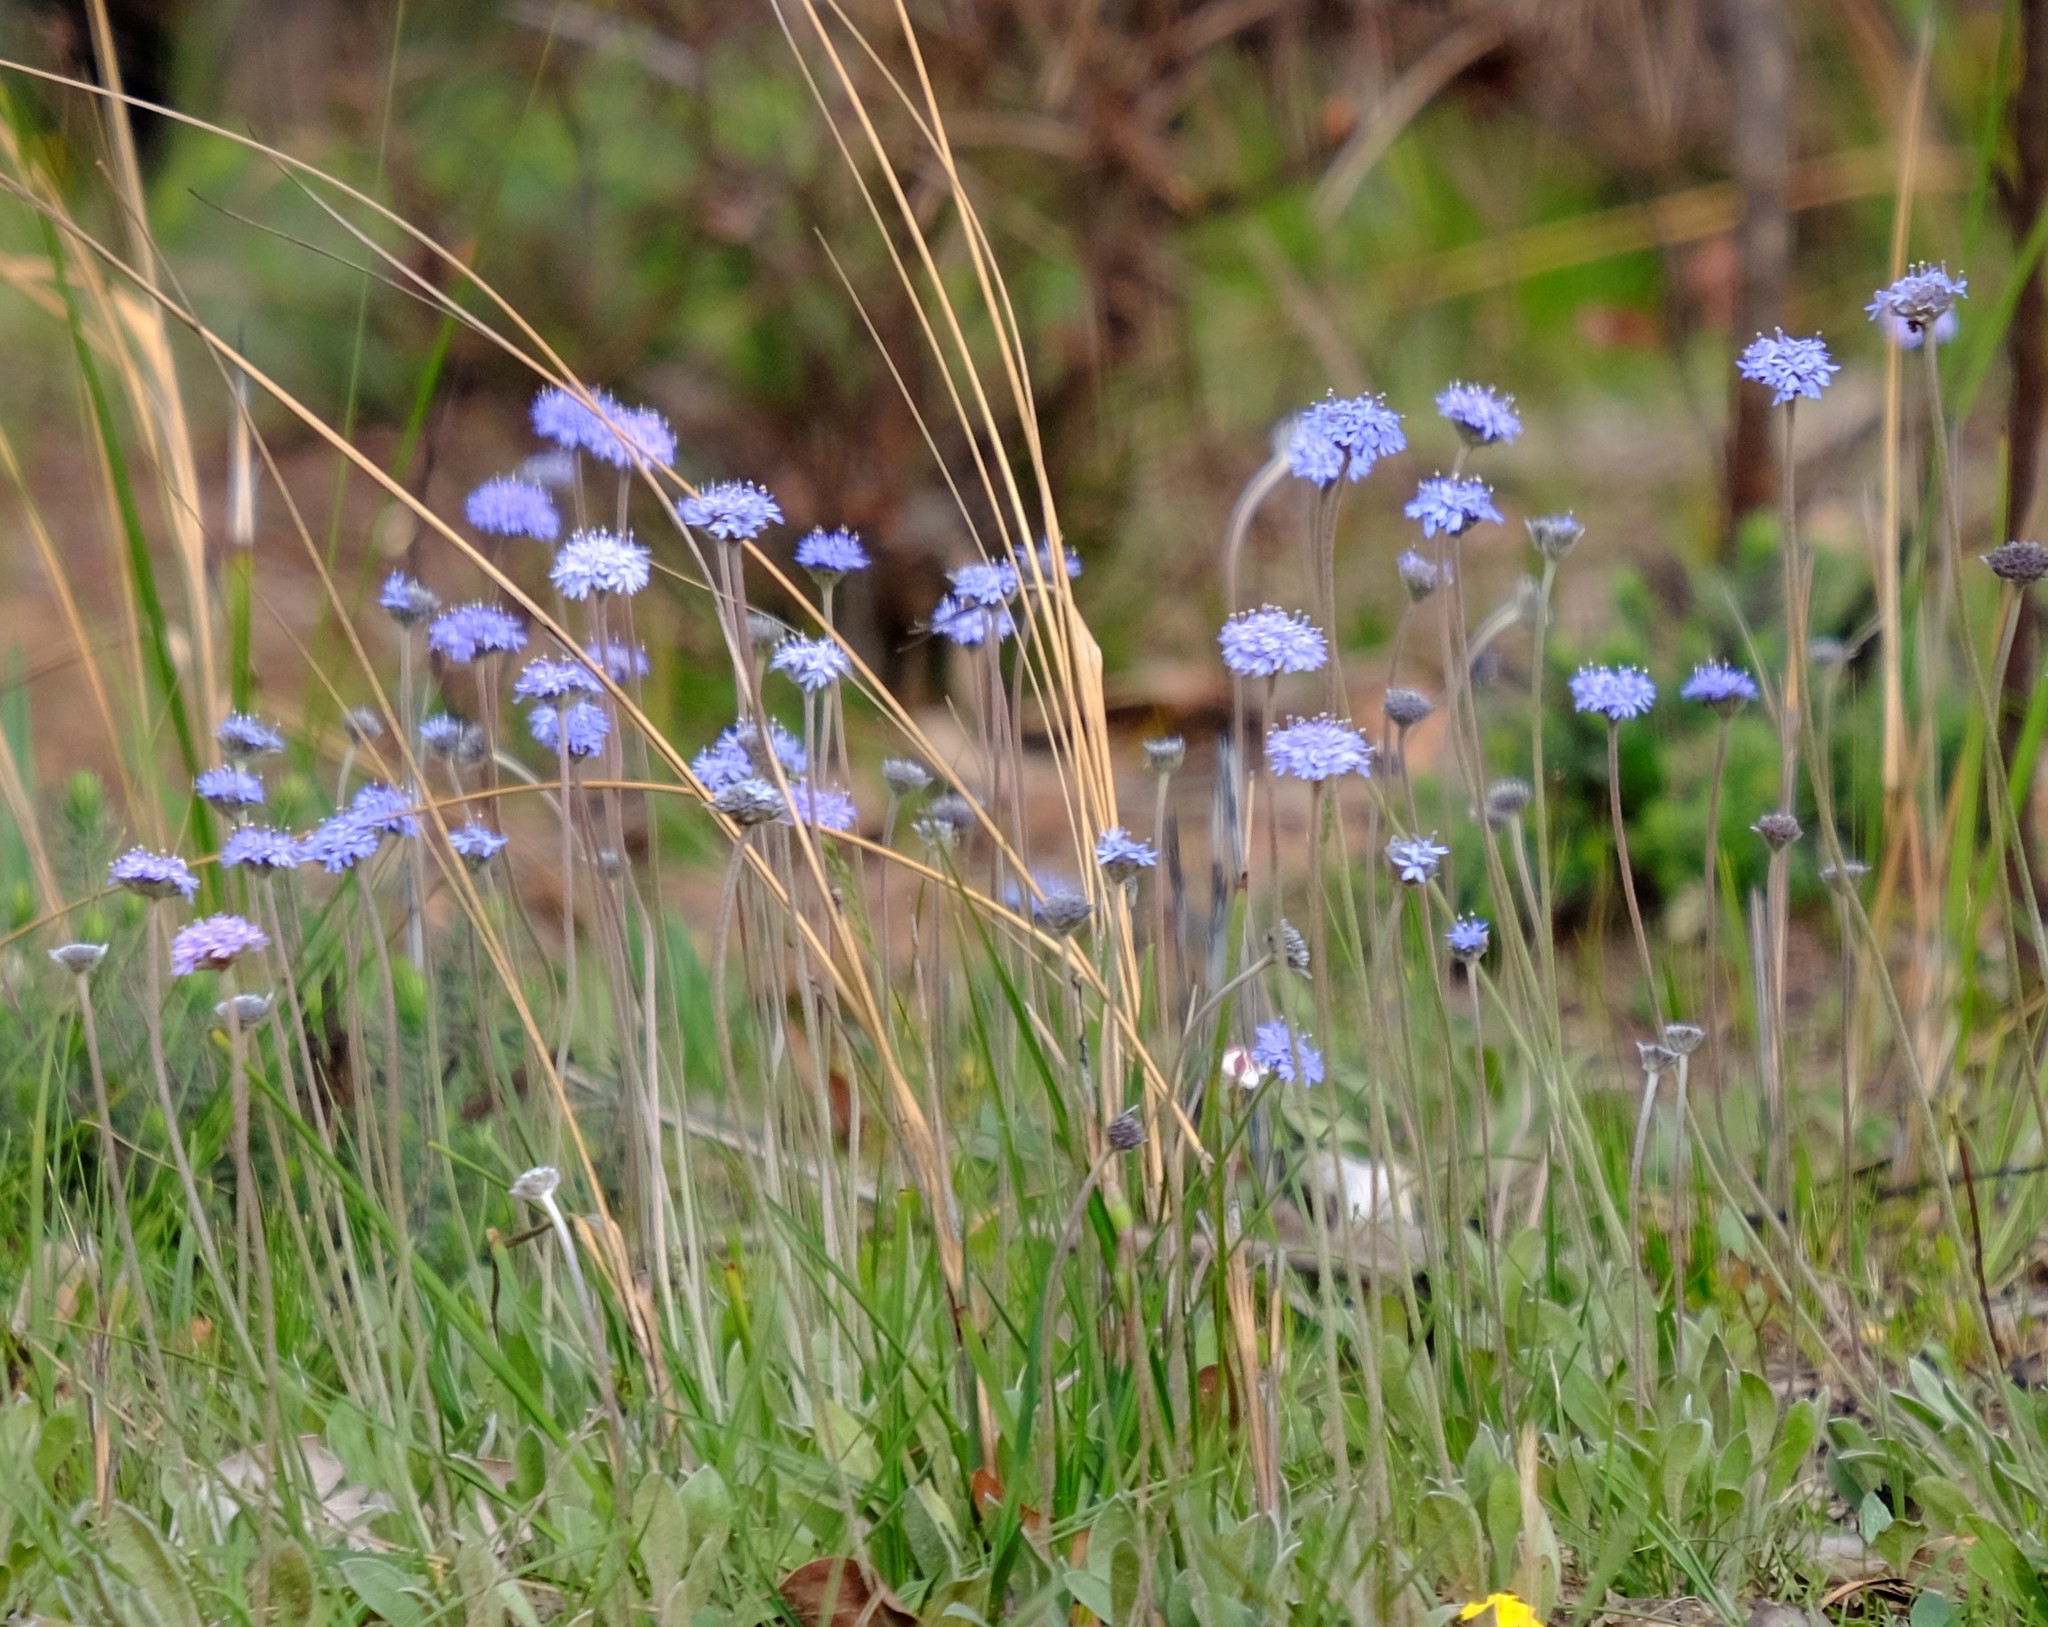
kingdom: Plantae
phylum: Tracheophyta
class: Magnoliopsida
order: Asterales
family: Goodeniaceae
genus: Brunonia
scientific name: Brunonia australis
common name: Blue pincushion
